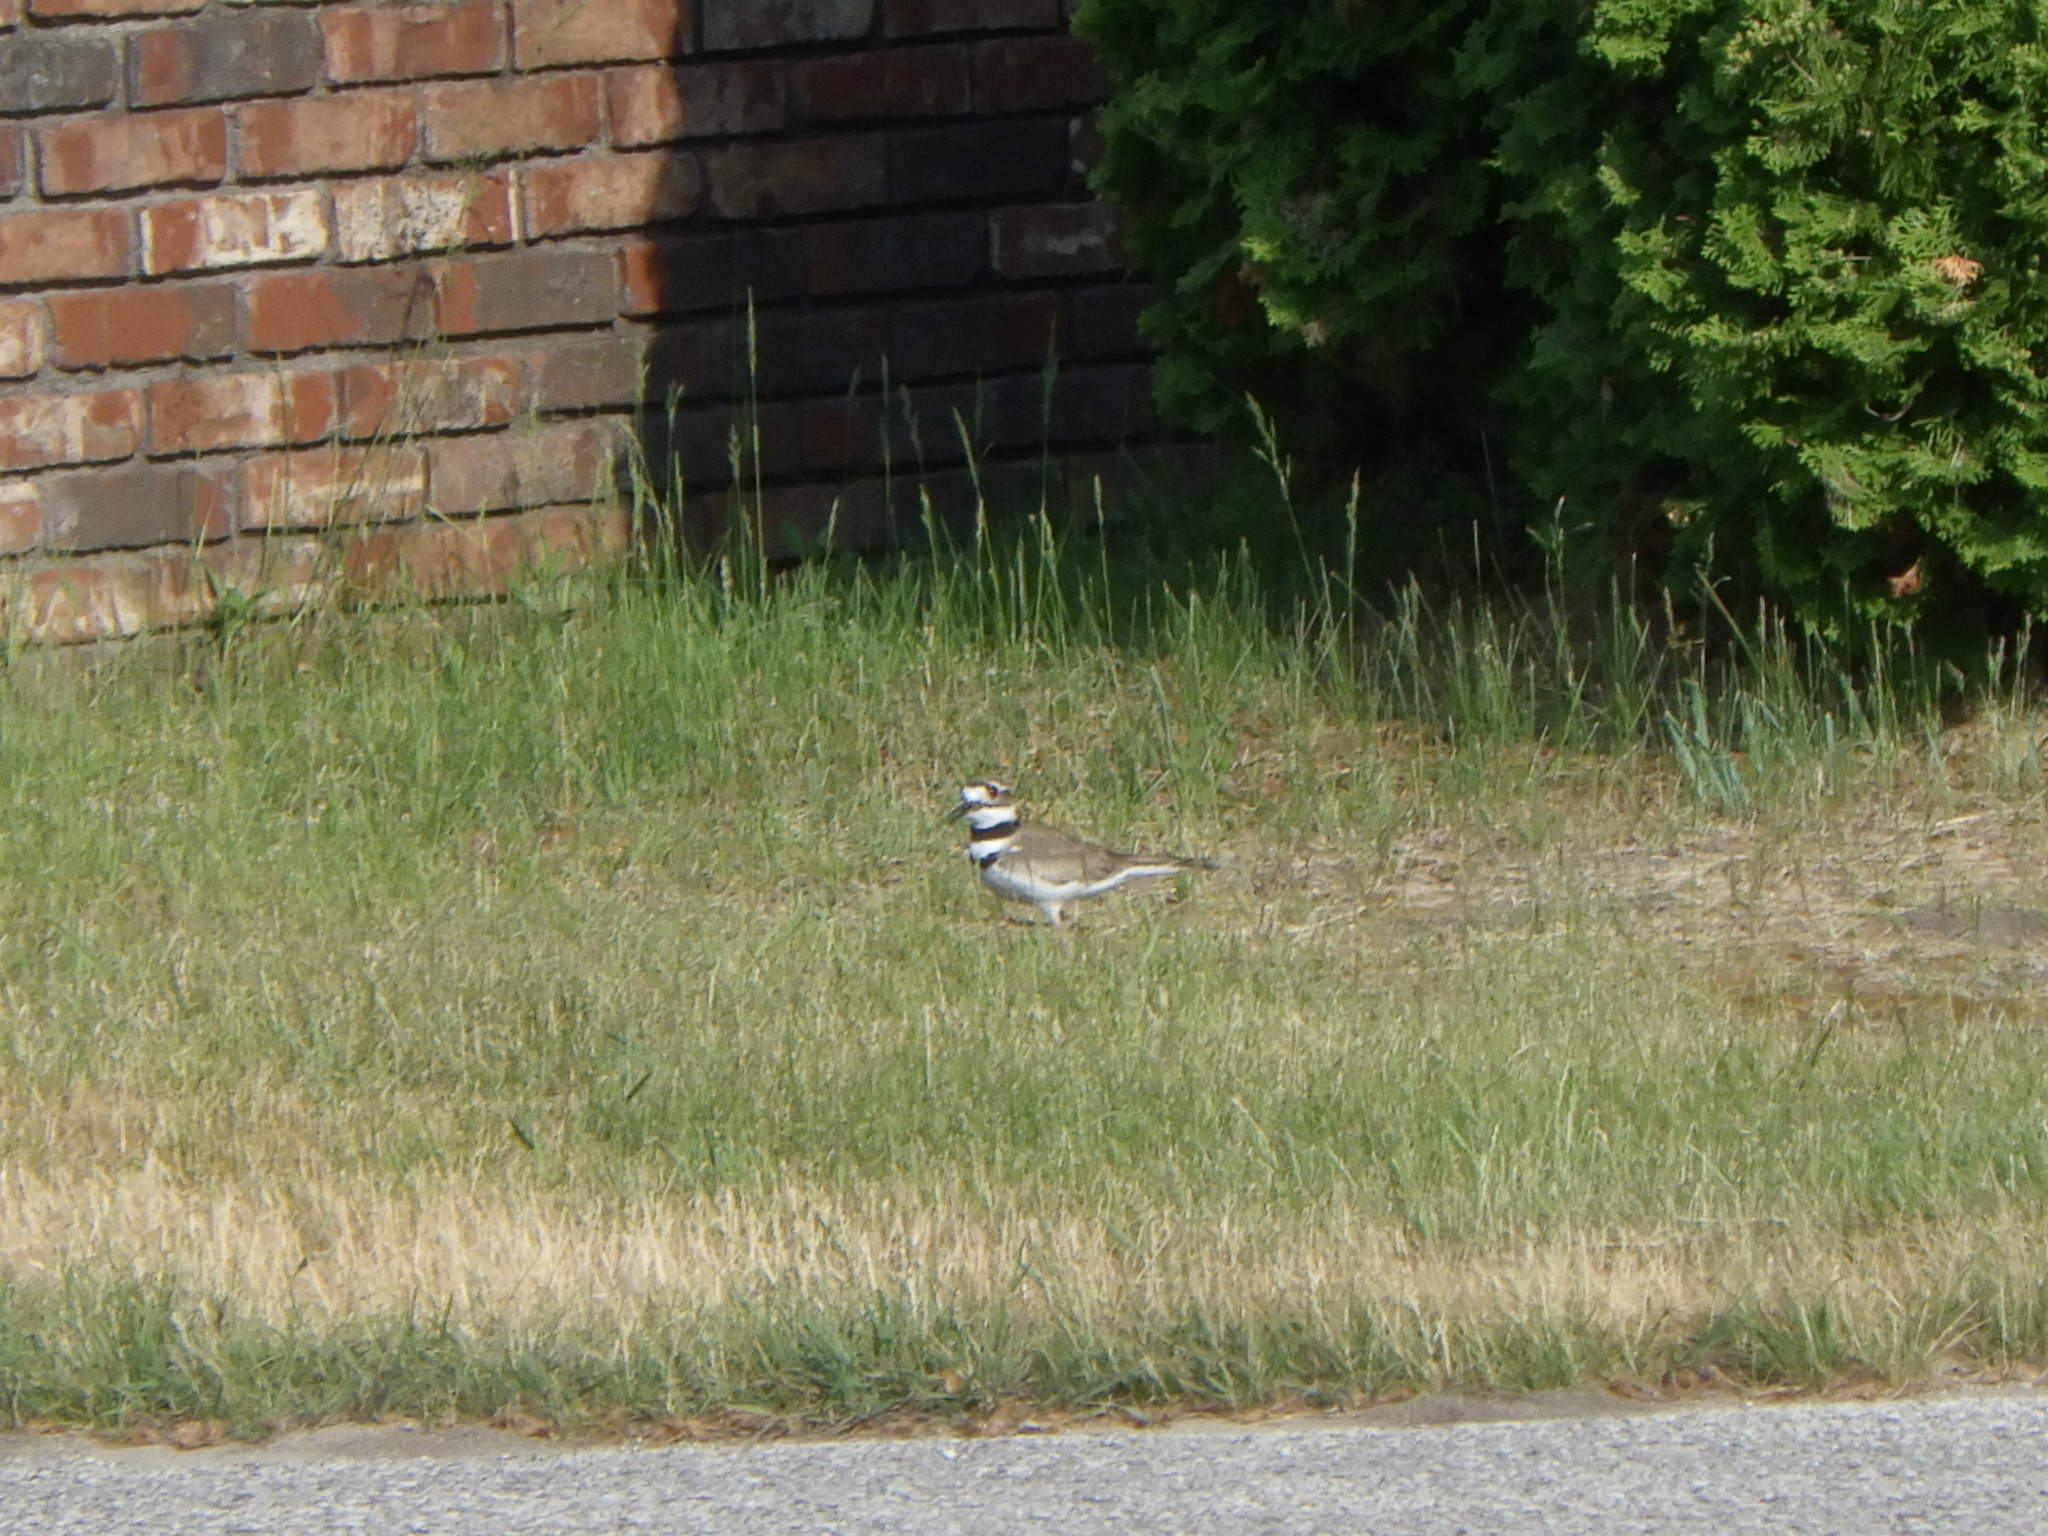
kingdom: Animalia
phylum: Chordata
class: Aves
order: Charadriiformes
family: Charadriidae
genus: Charadrius
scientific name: Charadrius vociferus
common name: Killdeer
